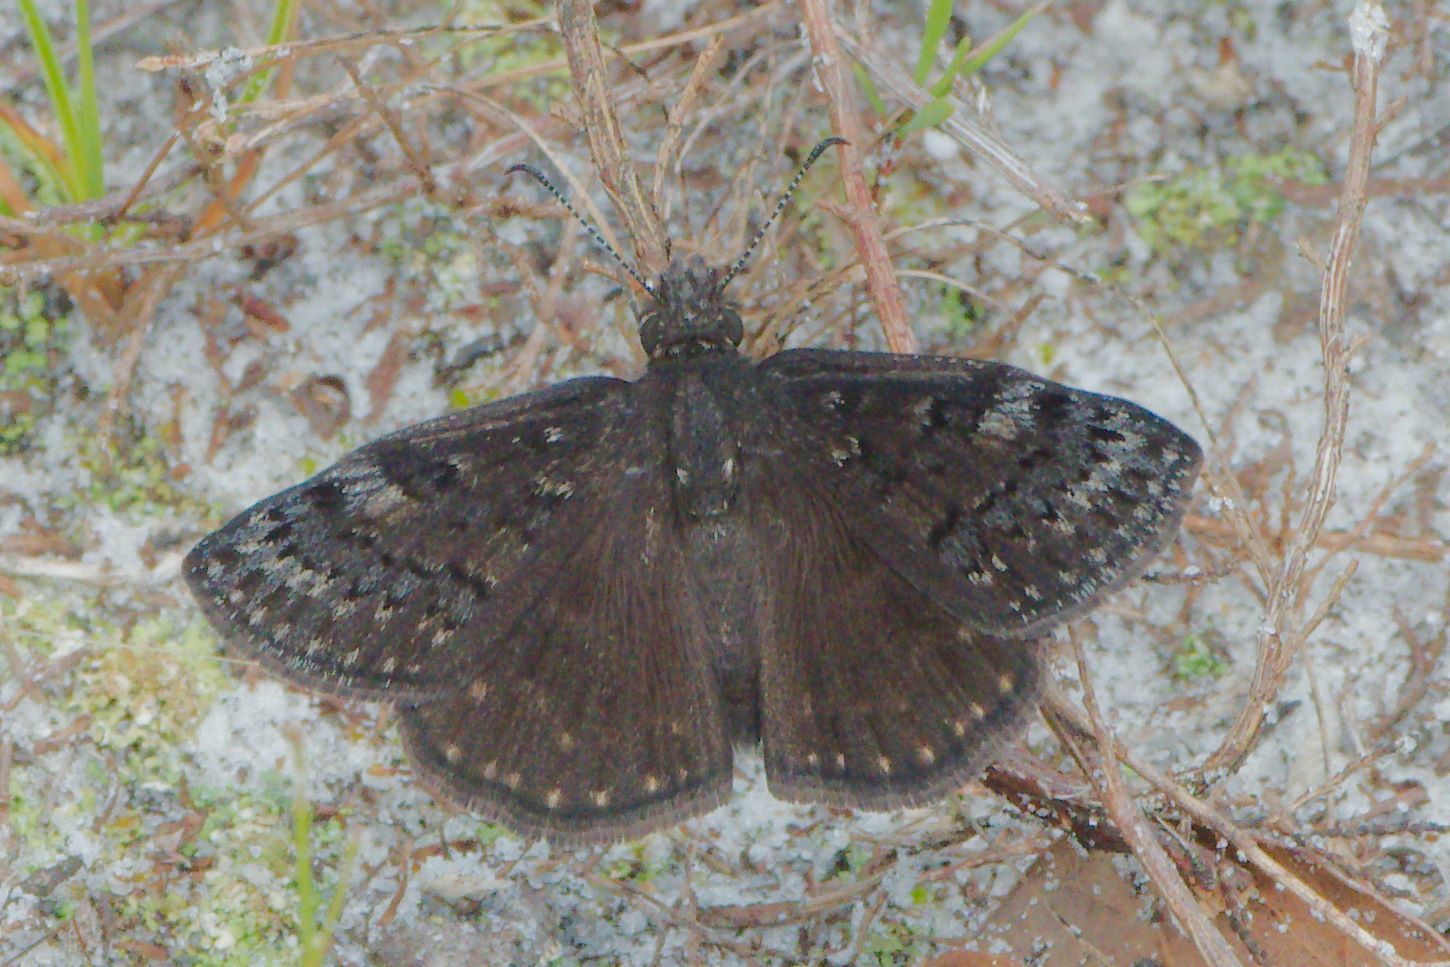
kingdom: Animalia
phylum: Arthropoda
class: Insecta
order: Lepidoptera
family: Hesperiidae
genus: Erynnis
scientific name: Erynnis brizo
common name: Sleepy duskywing
